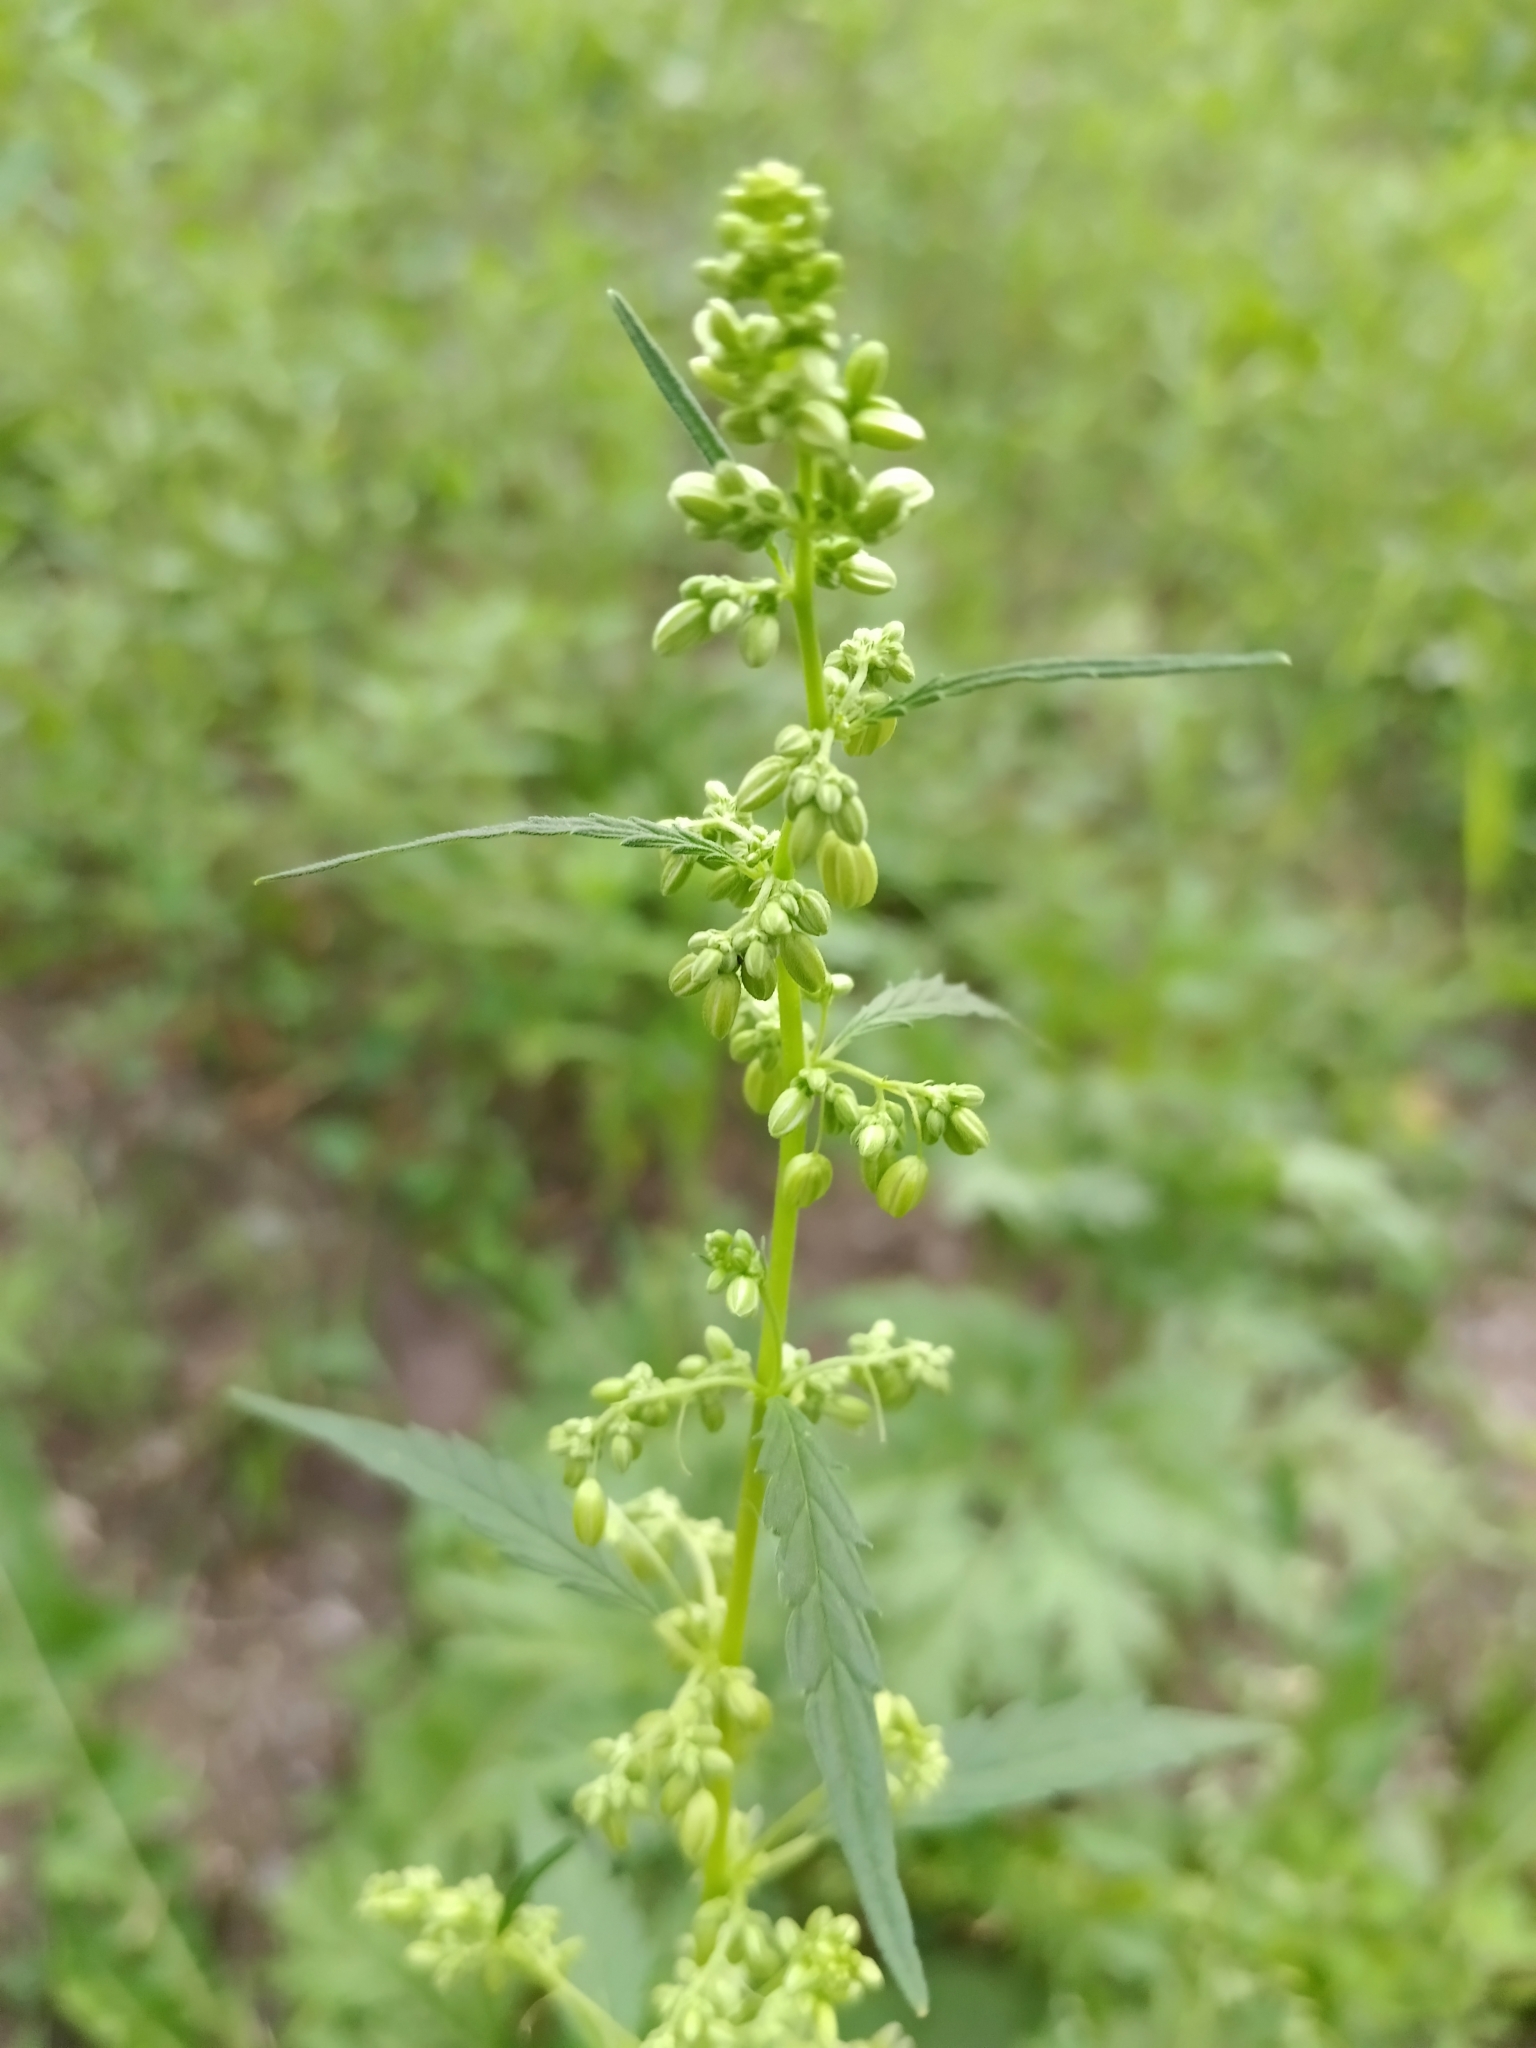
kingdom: Plantae
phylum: Tracheophyta
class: Magnoliopsida
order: Rosales
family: Cannabaceae
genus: Cannabis
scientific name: Cannabis sativa
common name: Hemp
